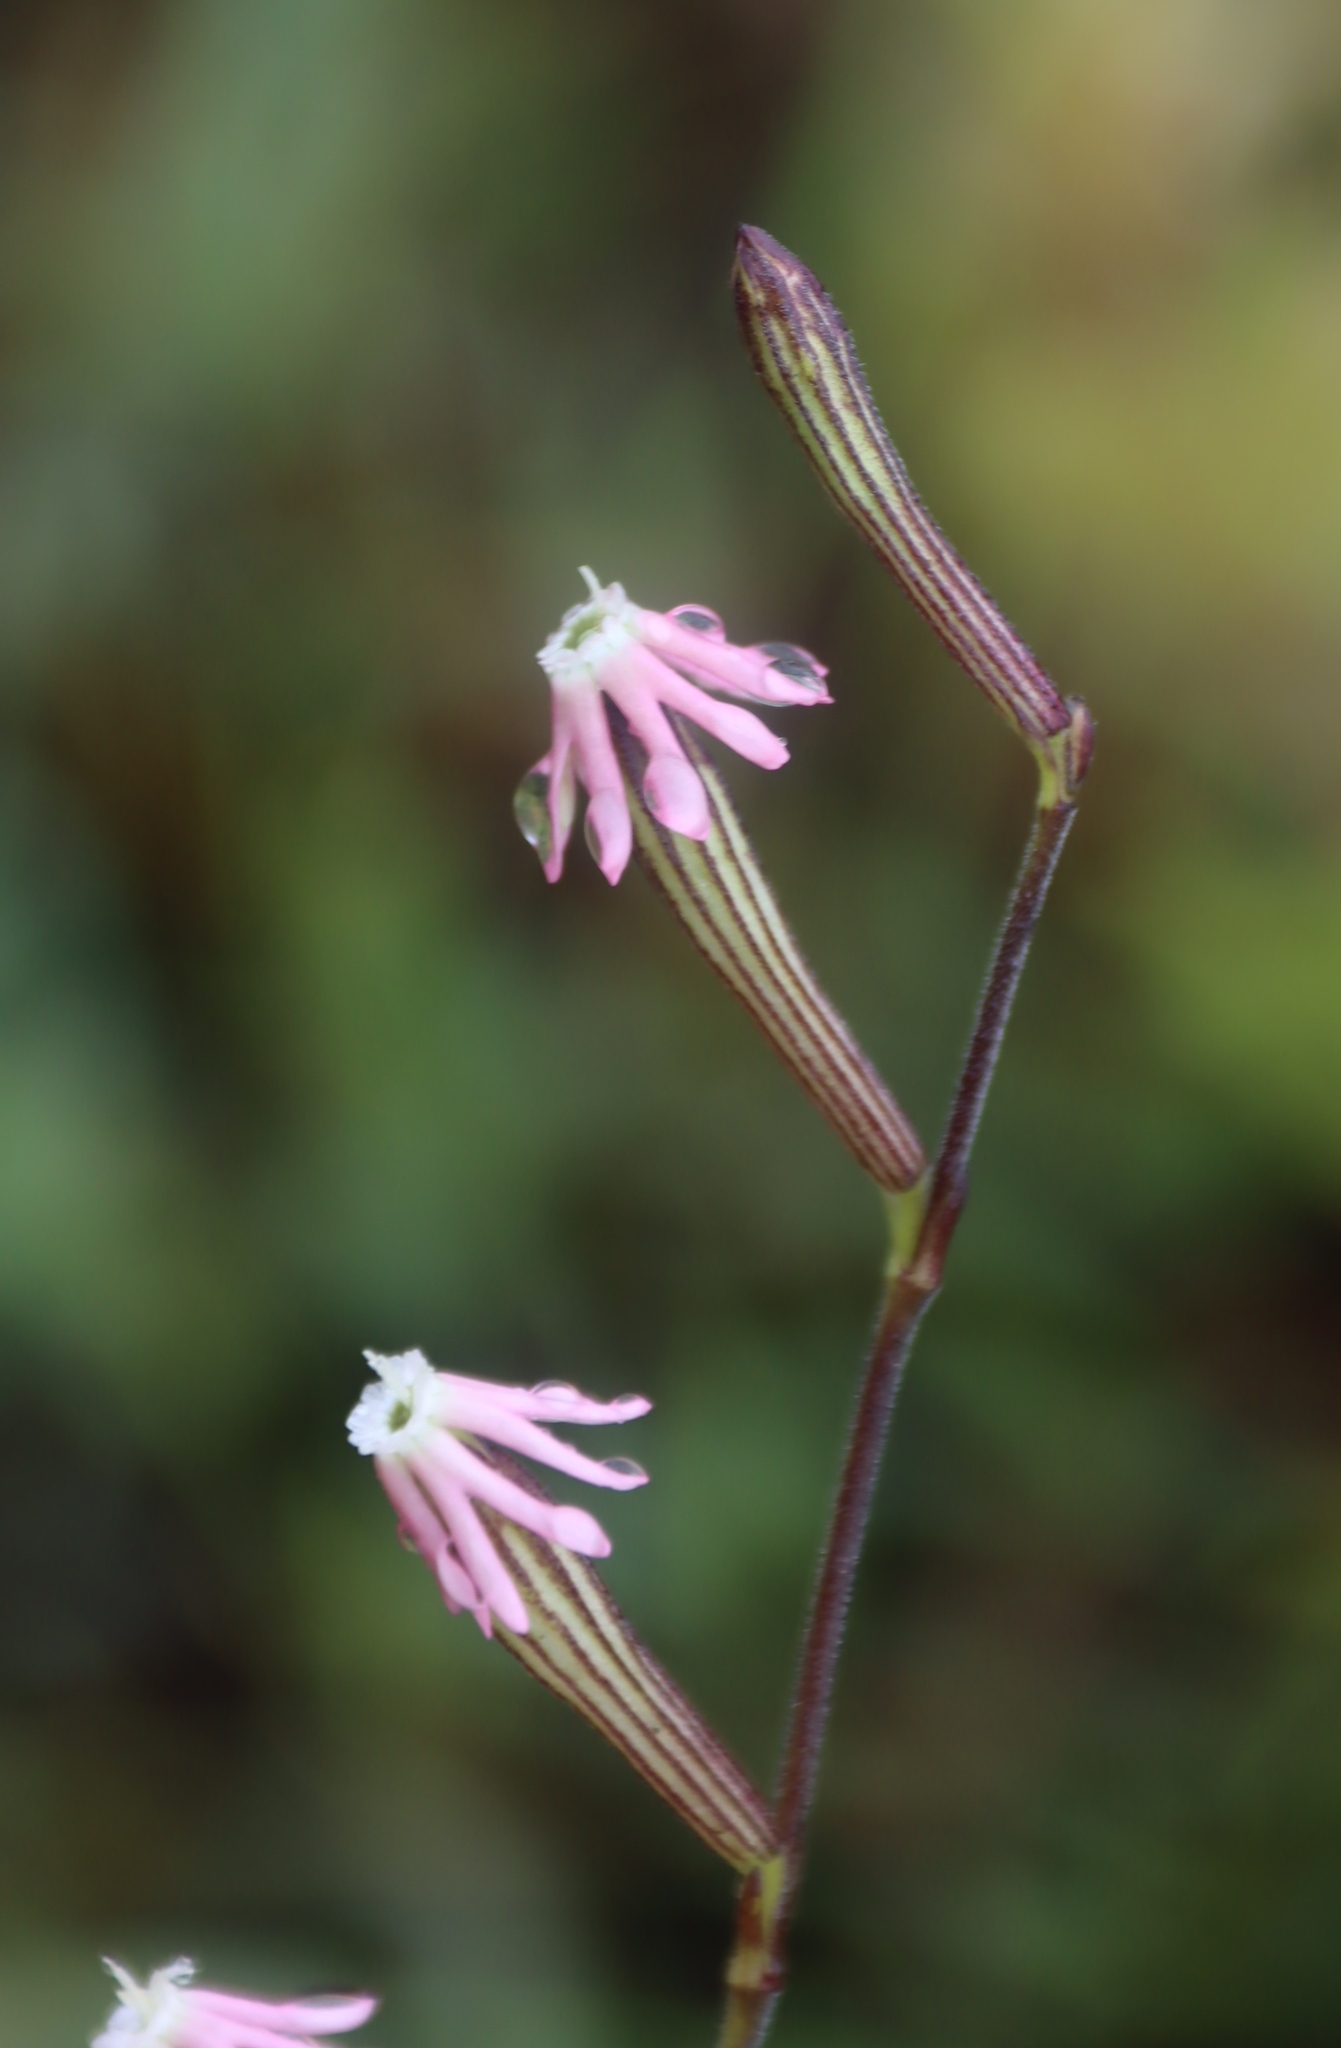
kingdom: Plantae
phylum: Tracheophyta
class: Magnoliopsida
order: Caryophyllales
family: Caryophyllaceae
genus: Silene
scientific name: Silene burchellii
